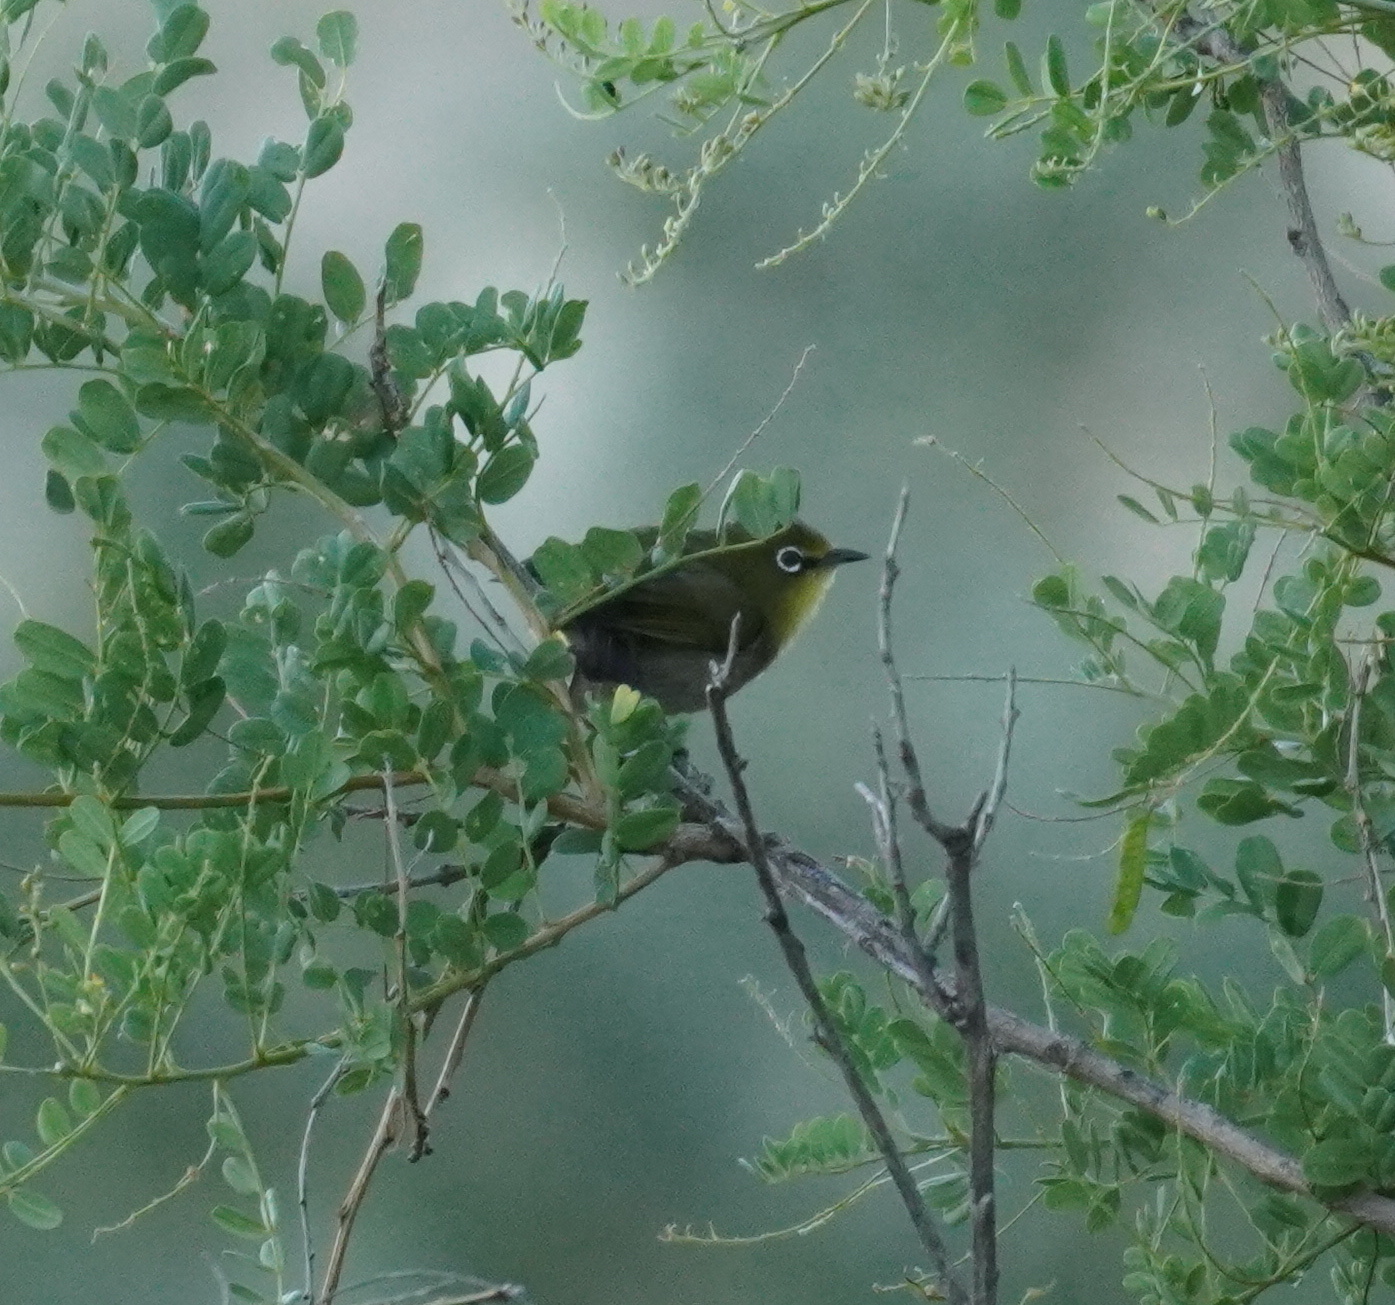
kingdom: Animalia
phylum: Chordata
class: Aves
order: Passeriformes
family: Zosteropidae
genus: Zosterops
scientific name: Zosterops virens
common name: Cape white-eye
